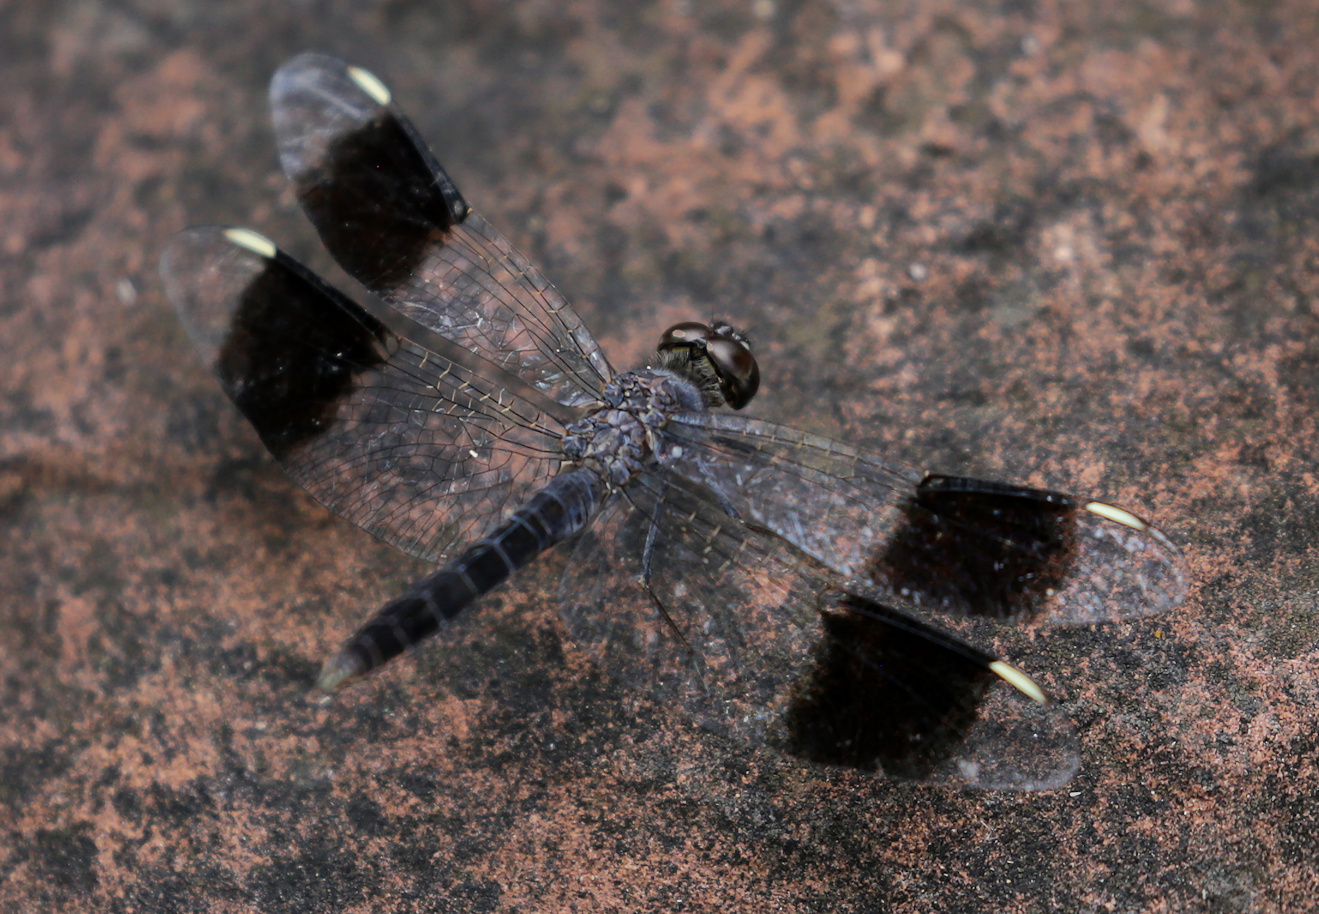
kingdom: Animalia
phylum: Arthropoda
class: Insecta
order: Odonata
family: Libellulidae
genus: Brachythemis
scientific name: Brachythemis leucosticta
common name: Banded groundling
